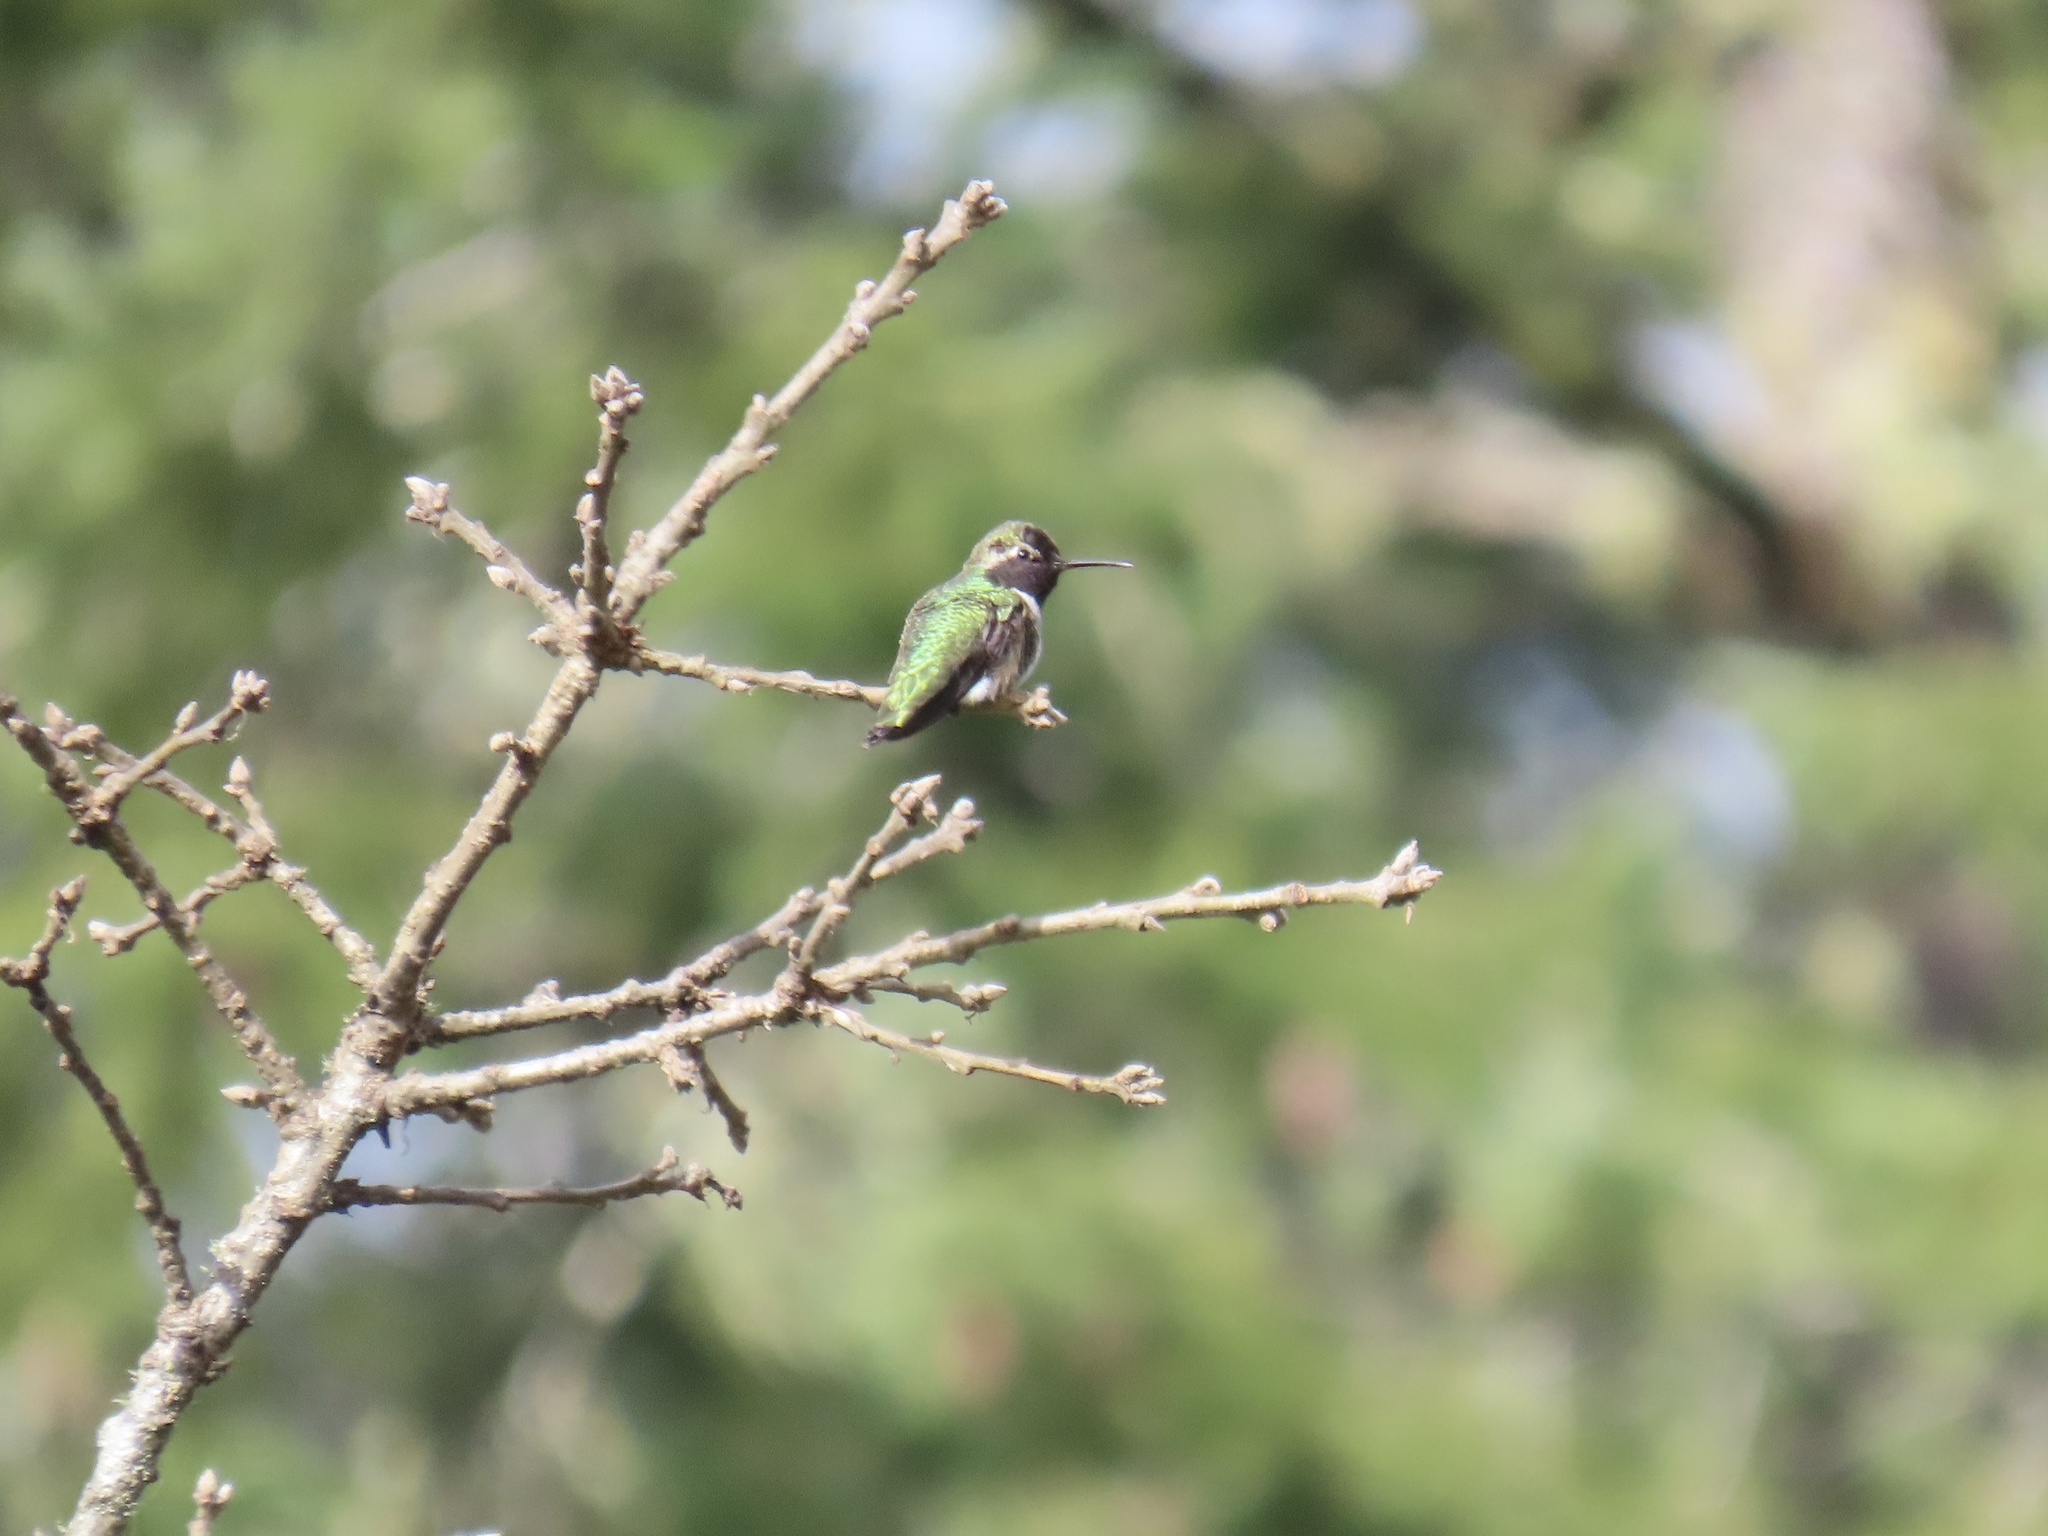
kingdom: Animalia
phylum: Chordata
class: Aves
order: Apodiformes
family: Trochilidae
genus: Calypte
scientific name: Calypte anna
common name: Anna's hummingbird
